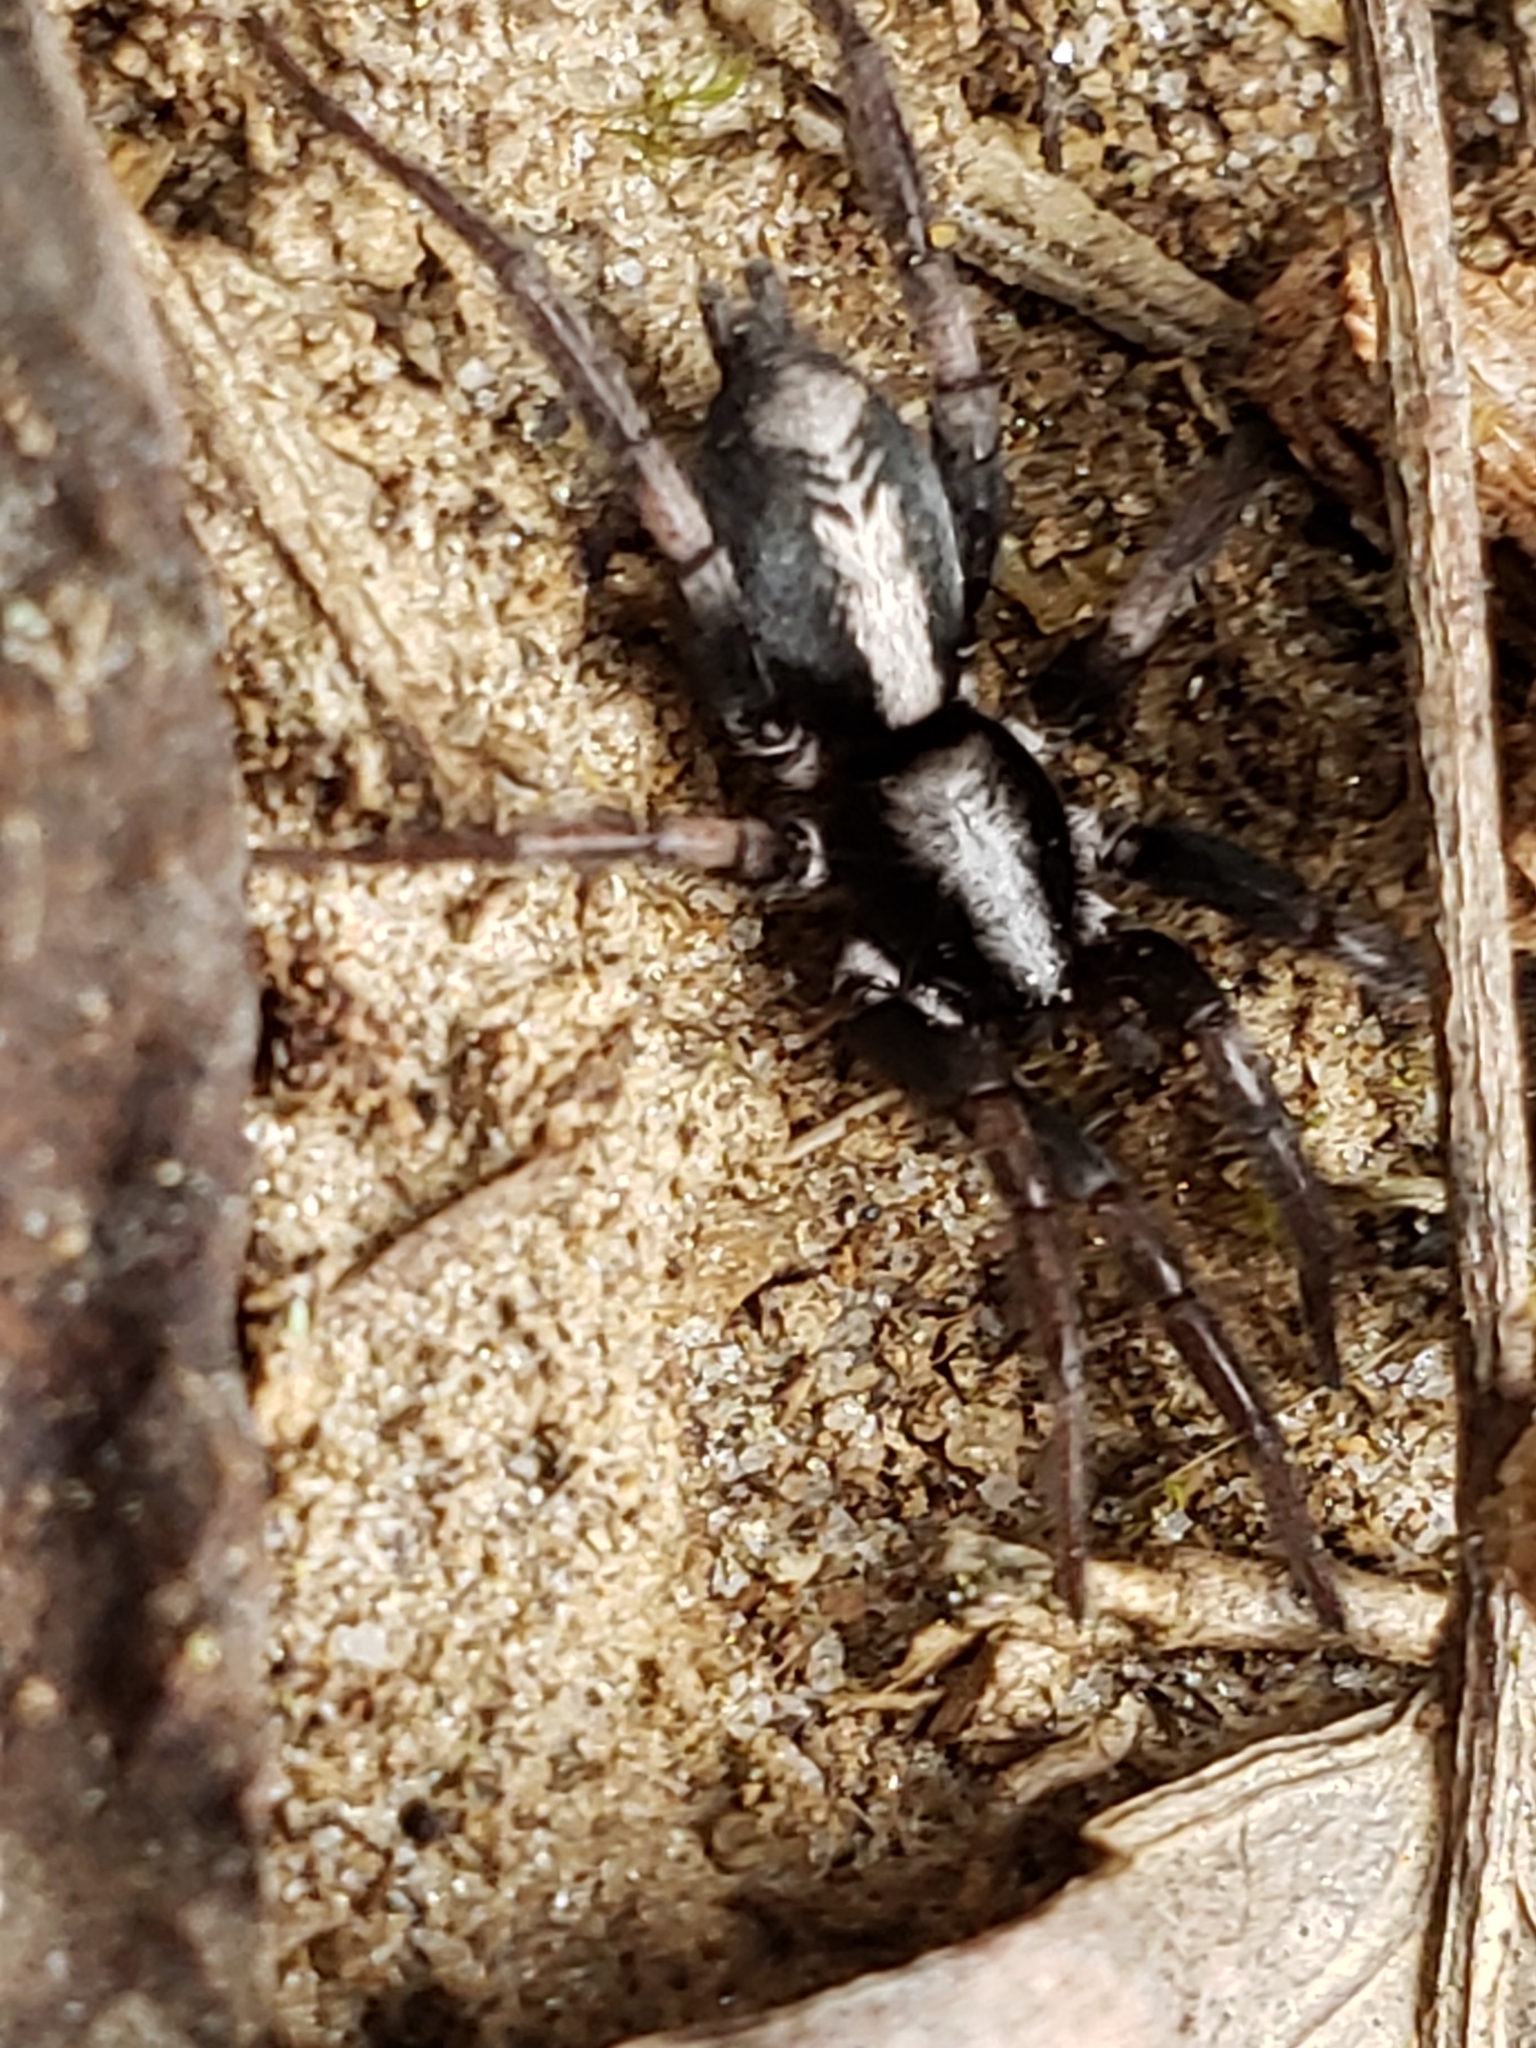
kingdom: Animalia
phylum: Arthropoda
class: Arachnida
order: Araneae
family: Gnaphosidae
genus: Herpyllus
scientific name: Herpyllus ecclesiasticus
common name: Eastern parson spider
